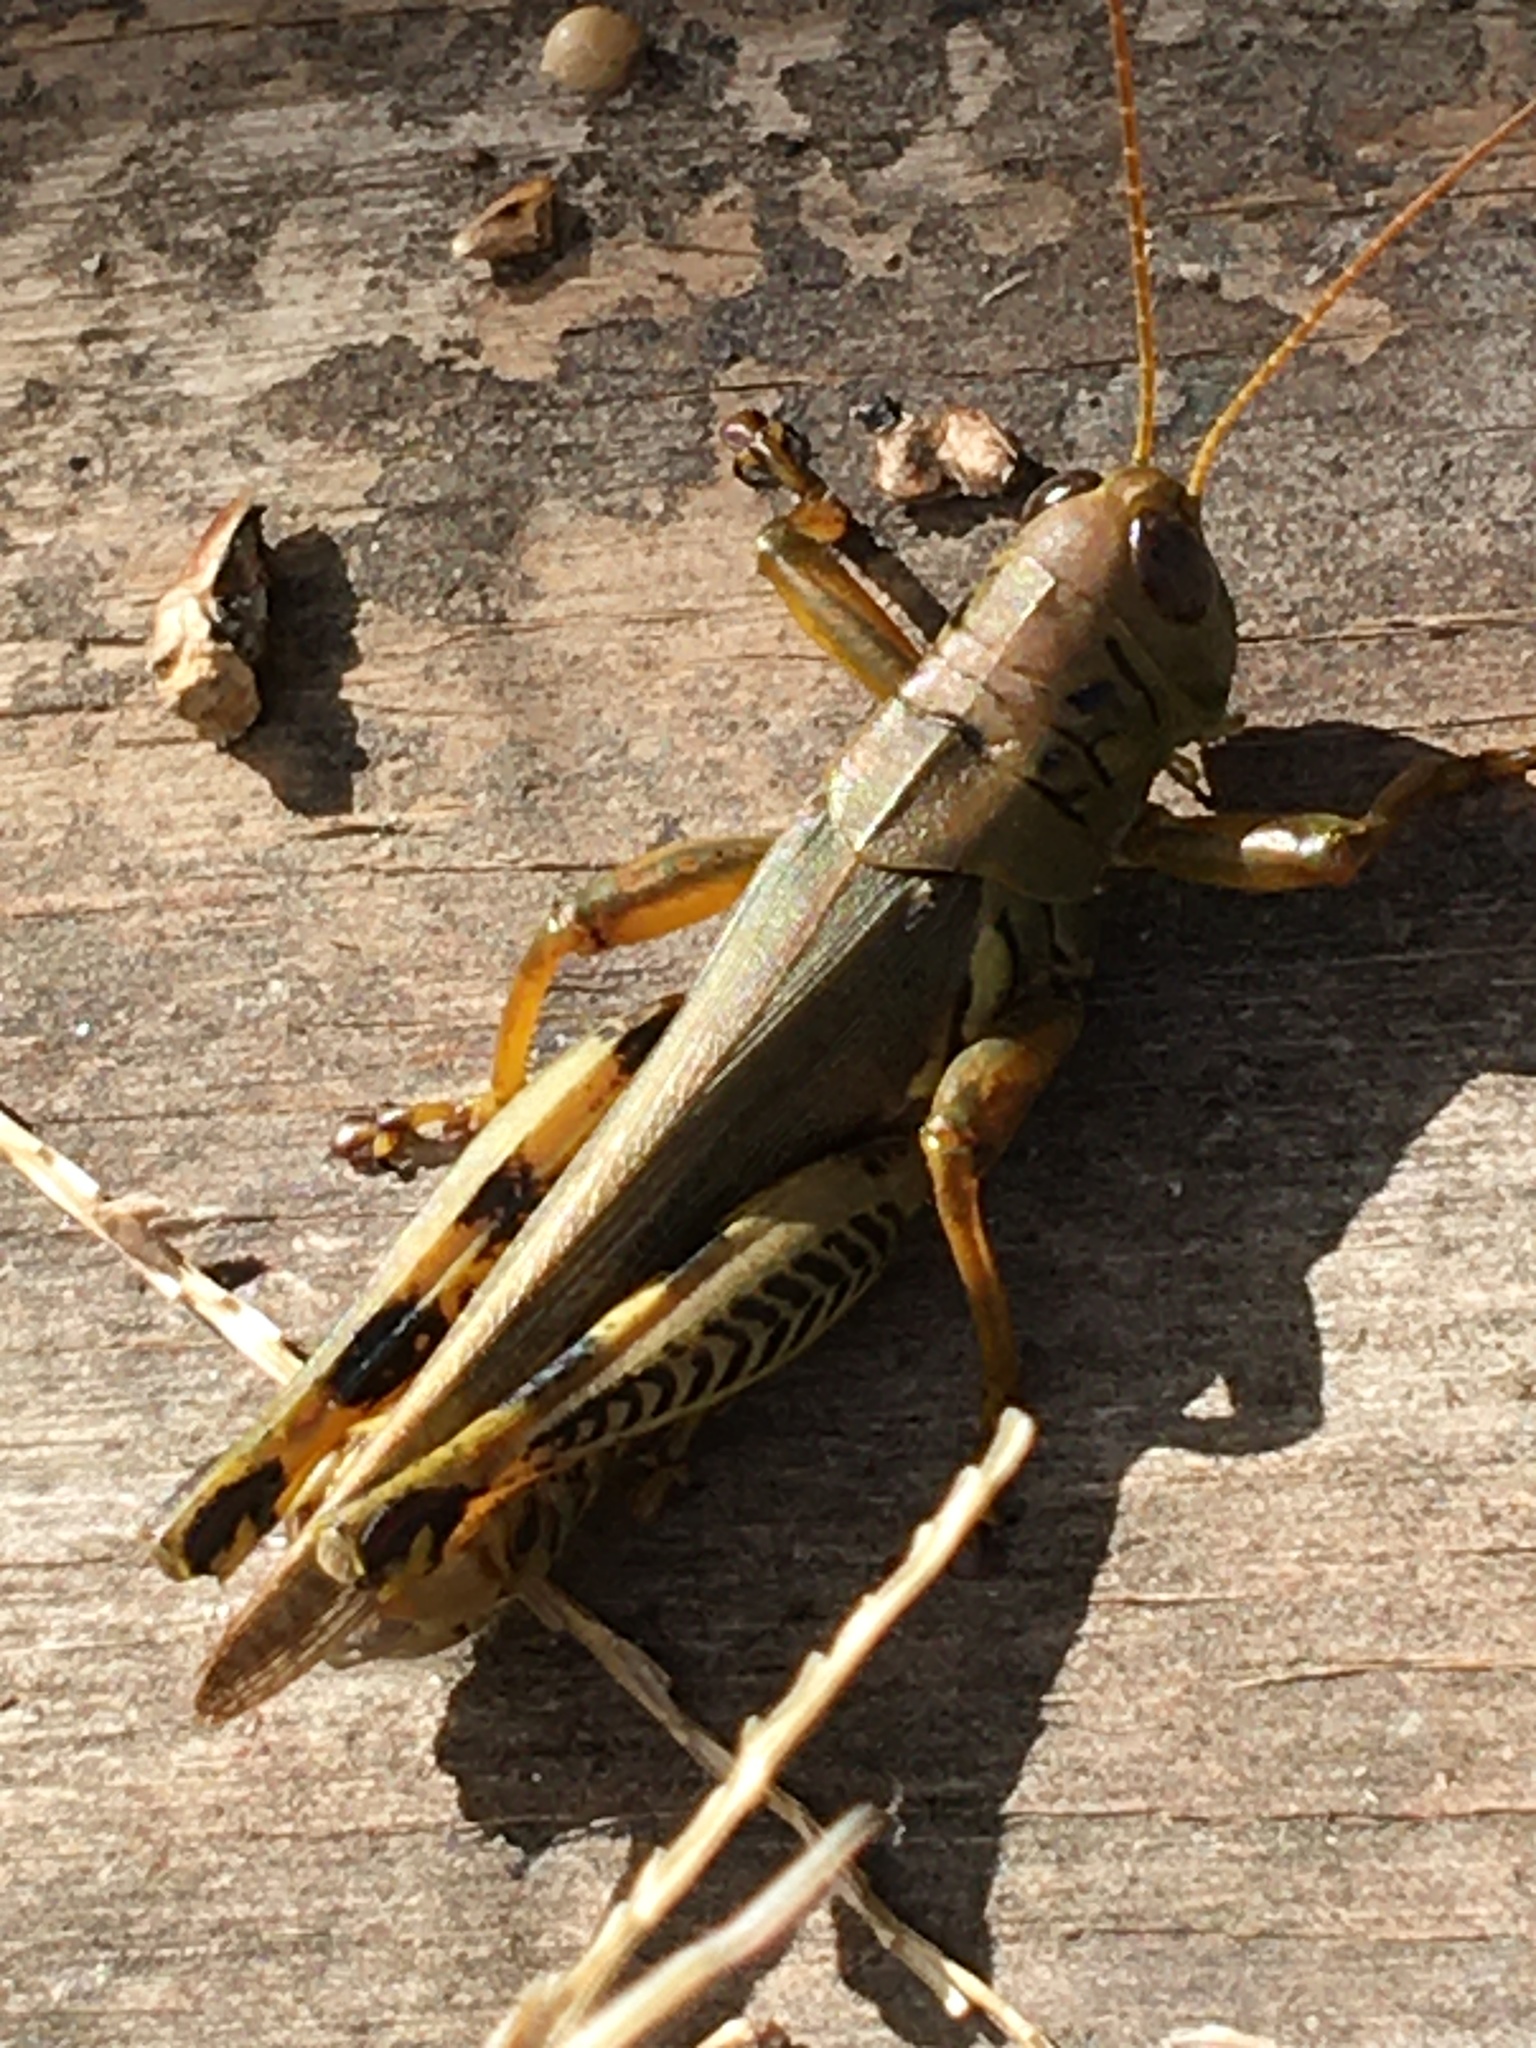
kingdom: Animalia
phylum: Arthropoda
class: Insecta
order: Orthoptera
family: Acrididae
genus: Melanoplus
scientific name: Melanoplus differentialis
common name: Differential grasshopper
